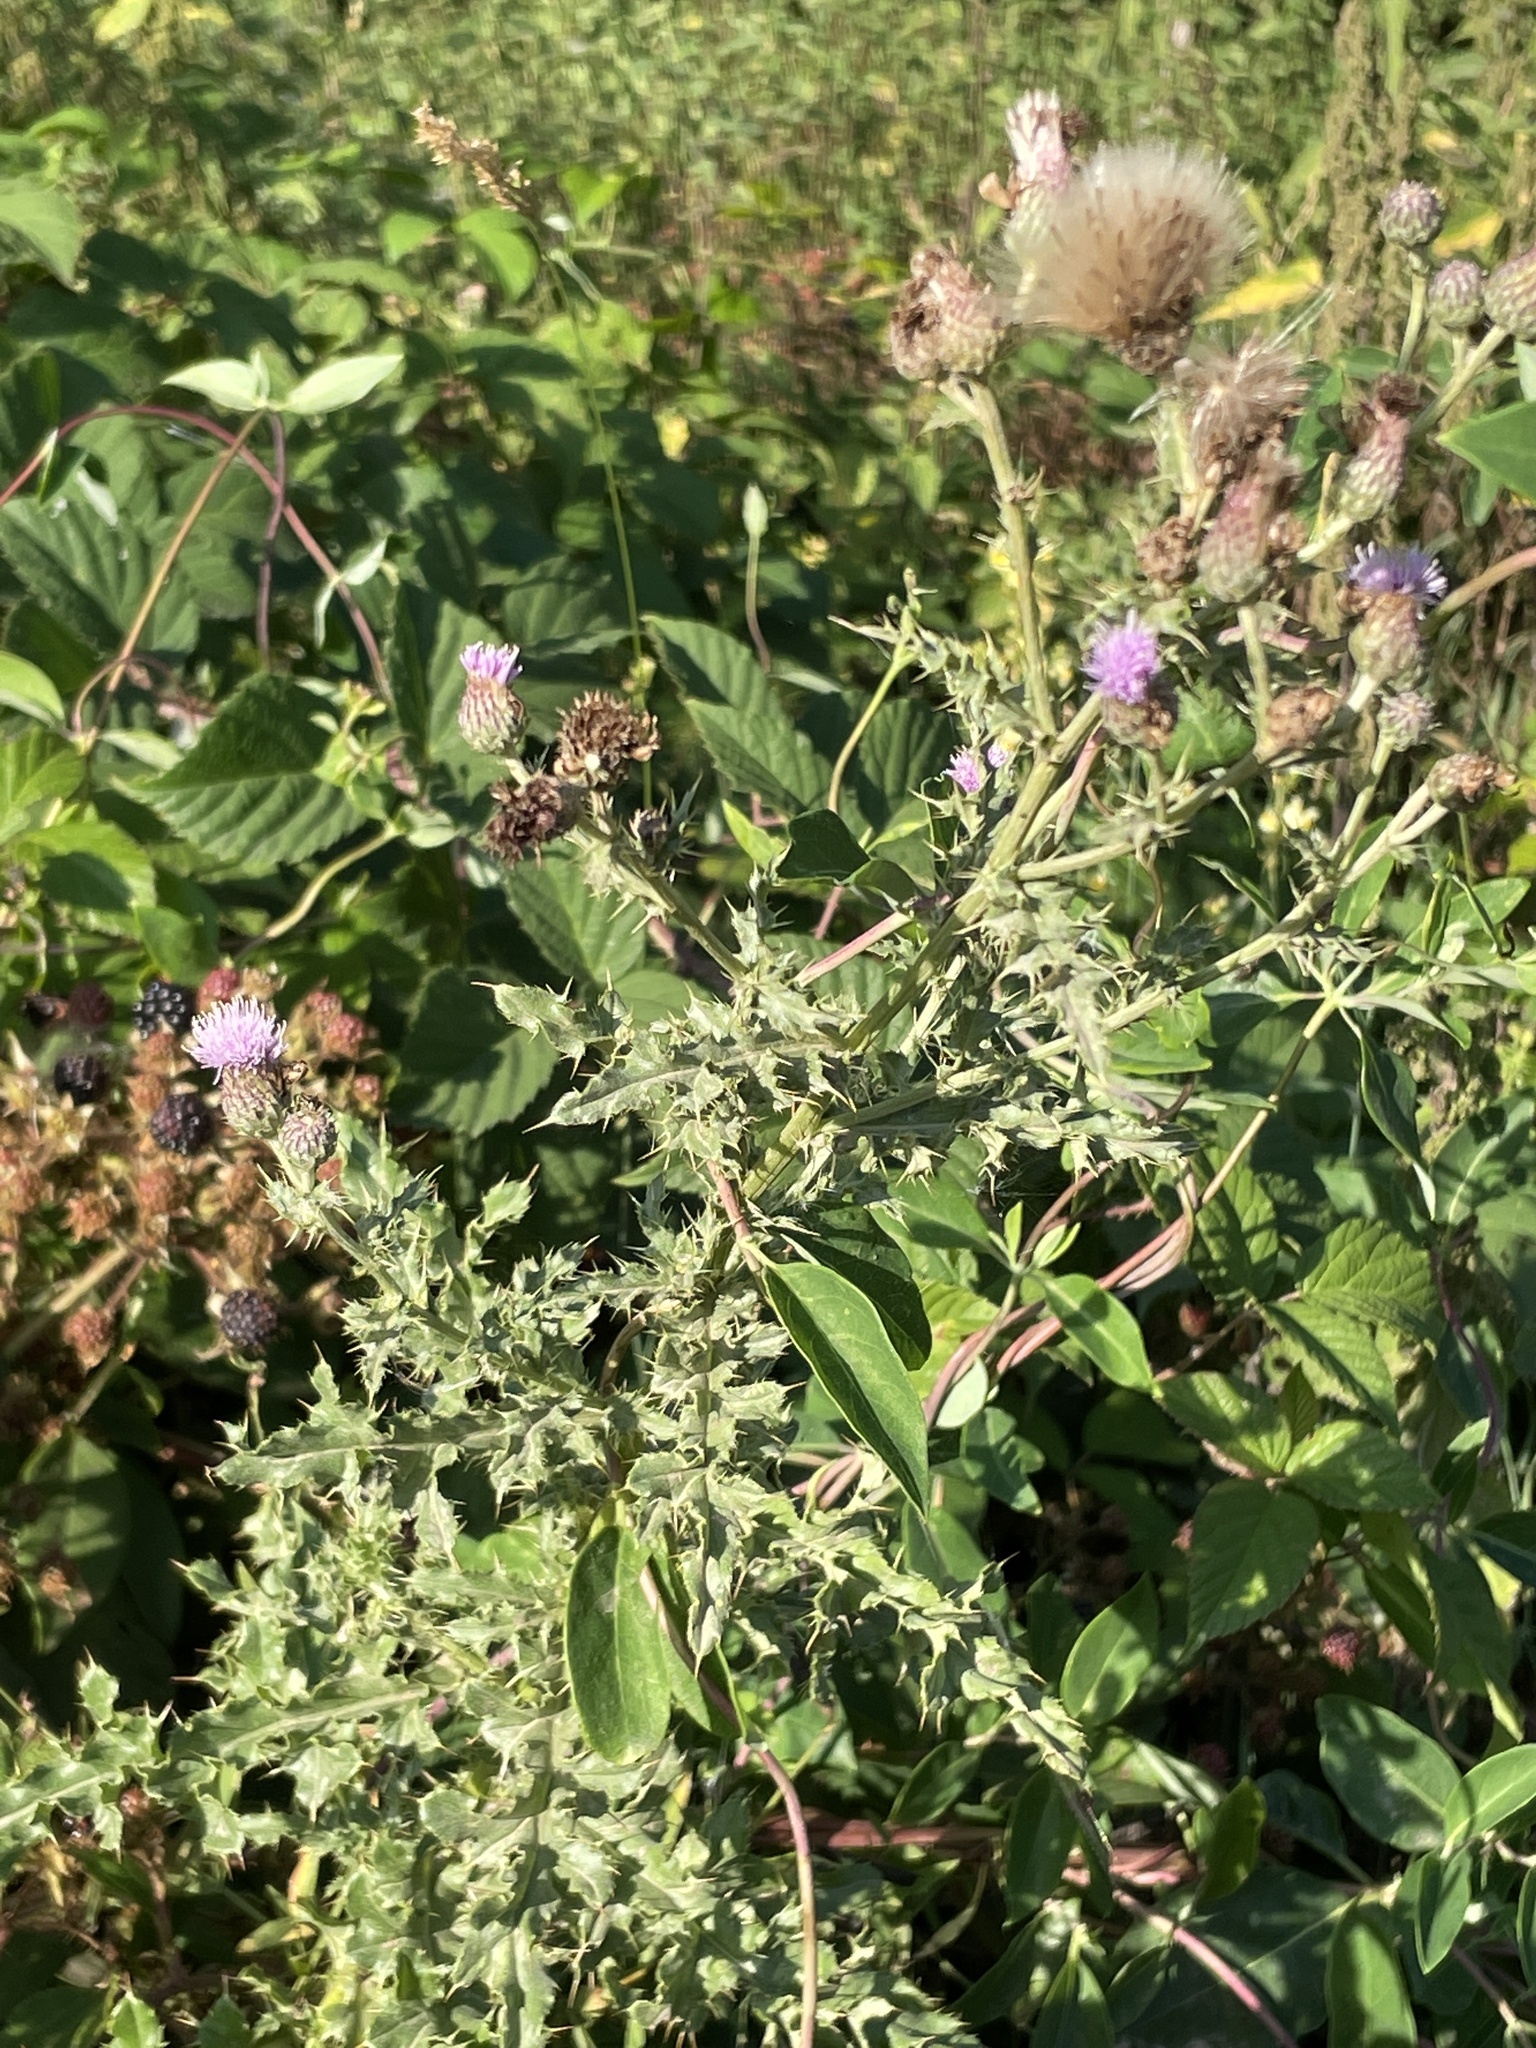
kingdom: Plantae
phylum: Tracheophyta
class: Magnoliopsida
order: Asterales
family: Asteraceae
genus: Cirsium
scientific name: Cirsium arvense
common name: Creeping thistle
